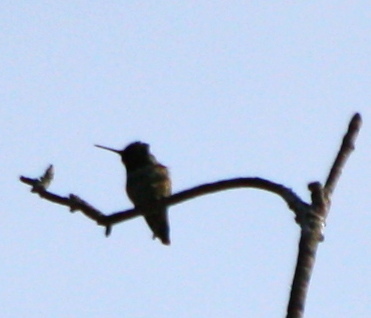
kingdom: Animalia
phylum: Chordata
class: Aves
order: Apodiformes
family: Trochilidae
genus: Calypte
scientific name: Calypte anna
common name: Anna's hummingbird
